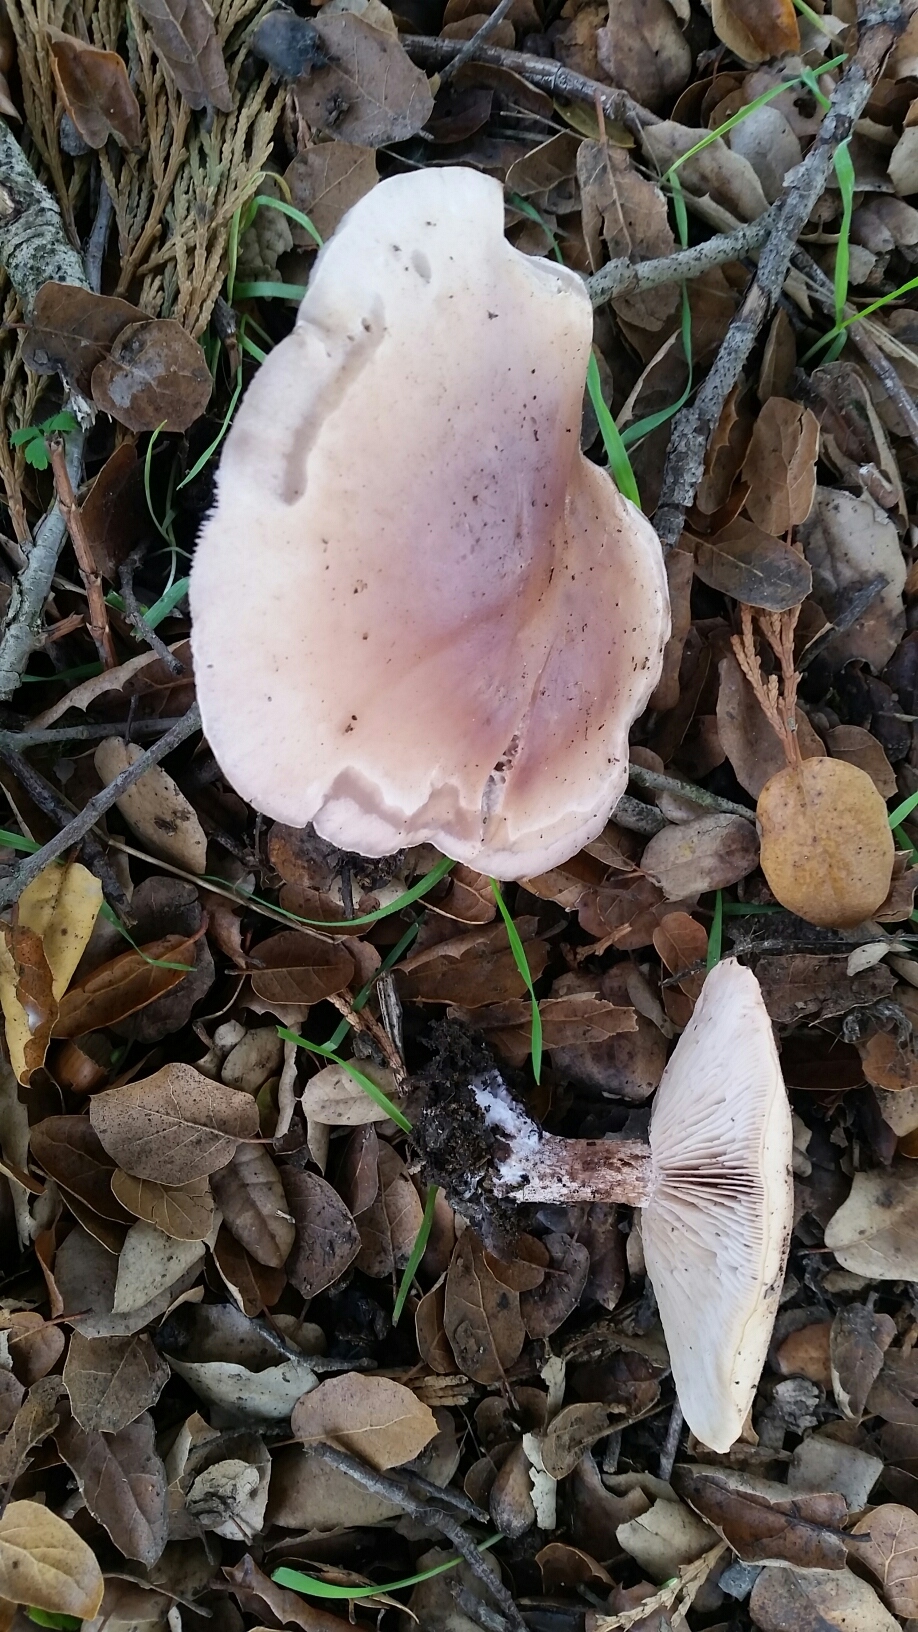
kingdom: Fungi
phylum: Basidiomycota
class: Agaricomycetes
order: Agaricales
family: Tricholomataceae
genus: Collybia
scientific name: Collybia
